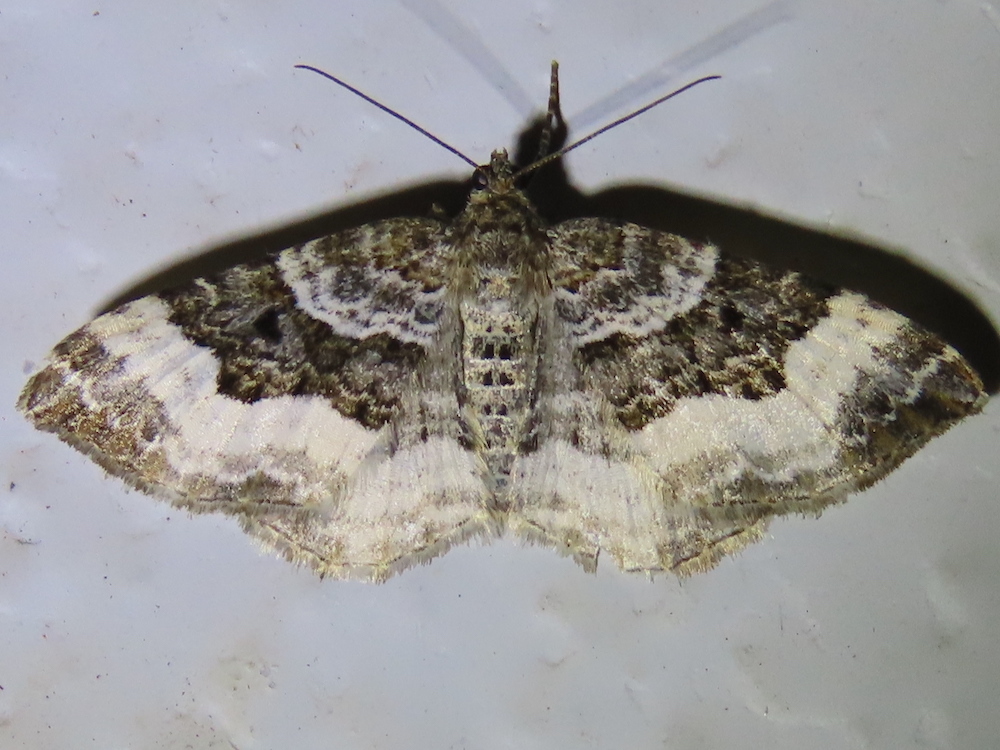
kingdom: Animalia
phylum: Arthropoda
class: Insecta
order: Lepidoptera
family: Geometridae
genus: Epirrhoe
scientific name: Epirrhoe alternata
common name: Common carpet
